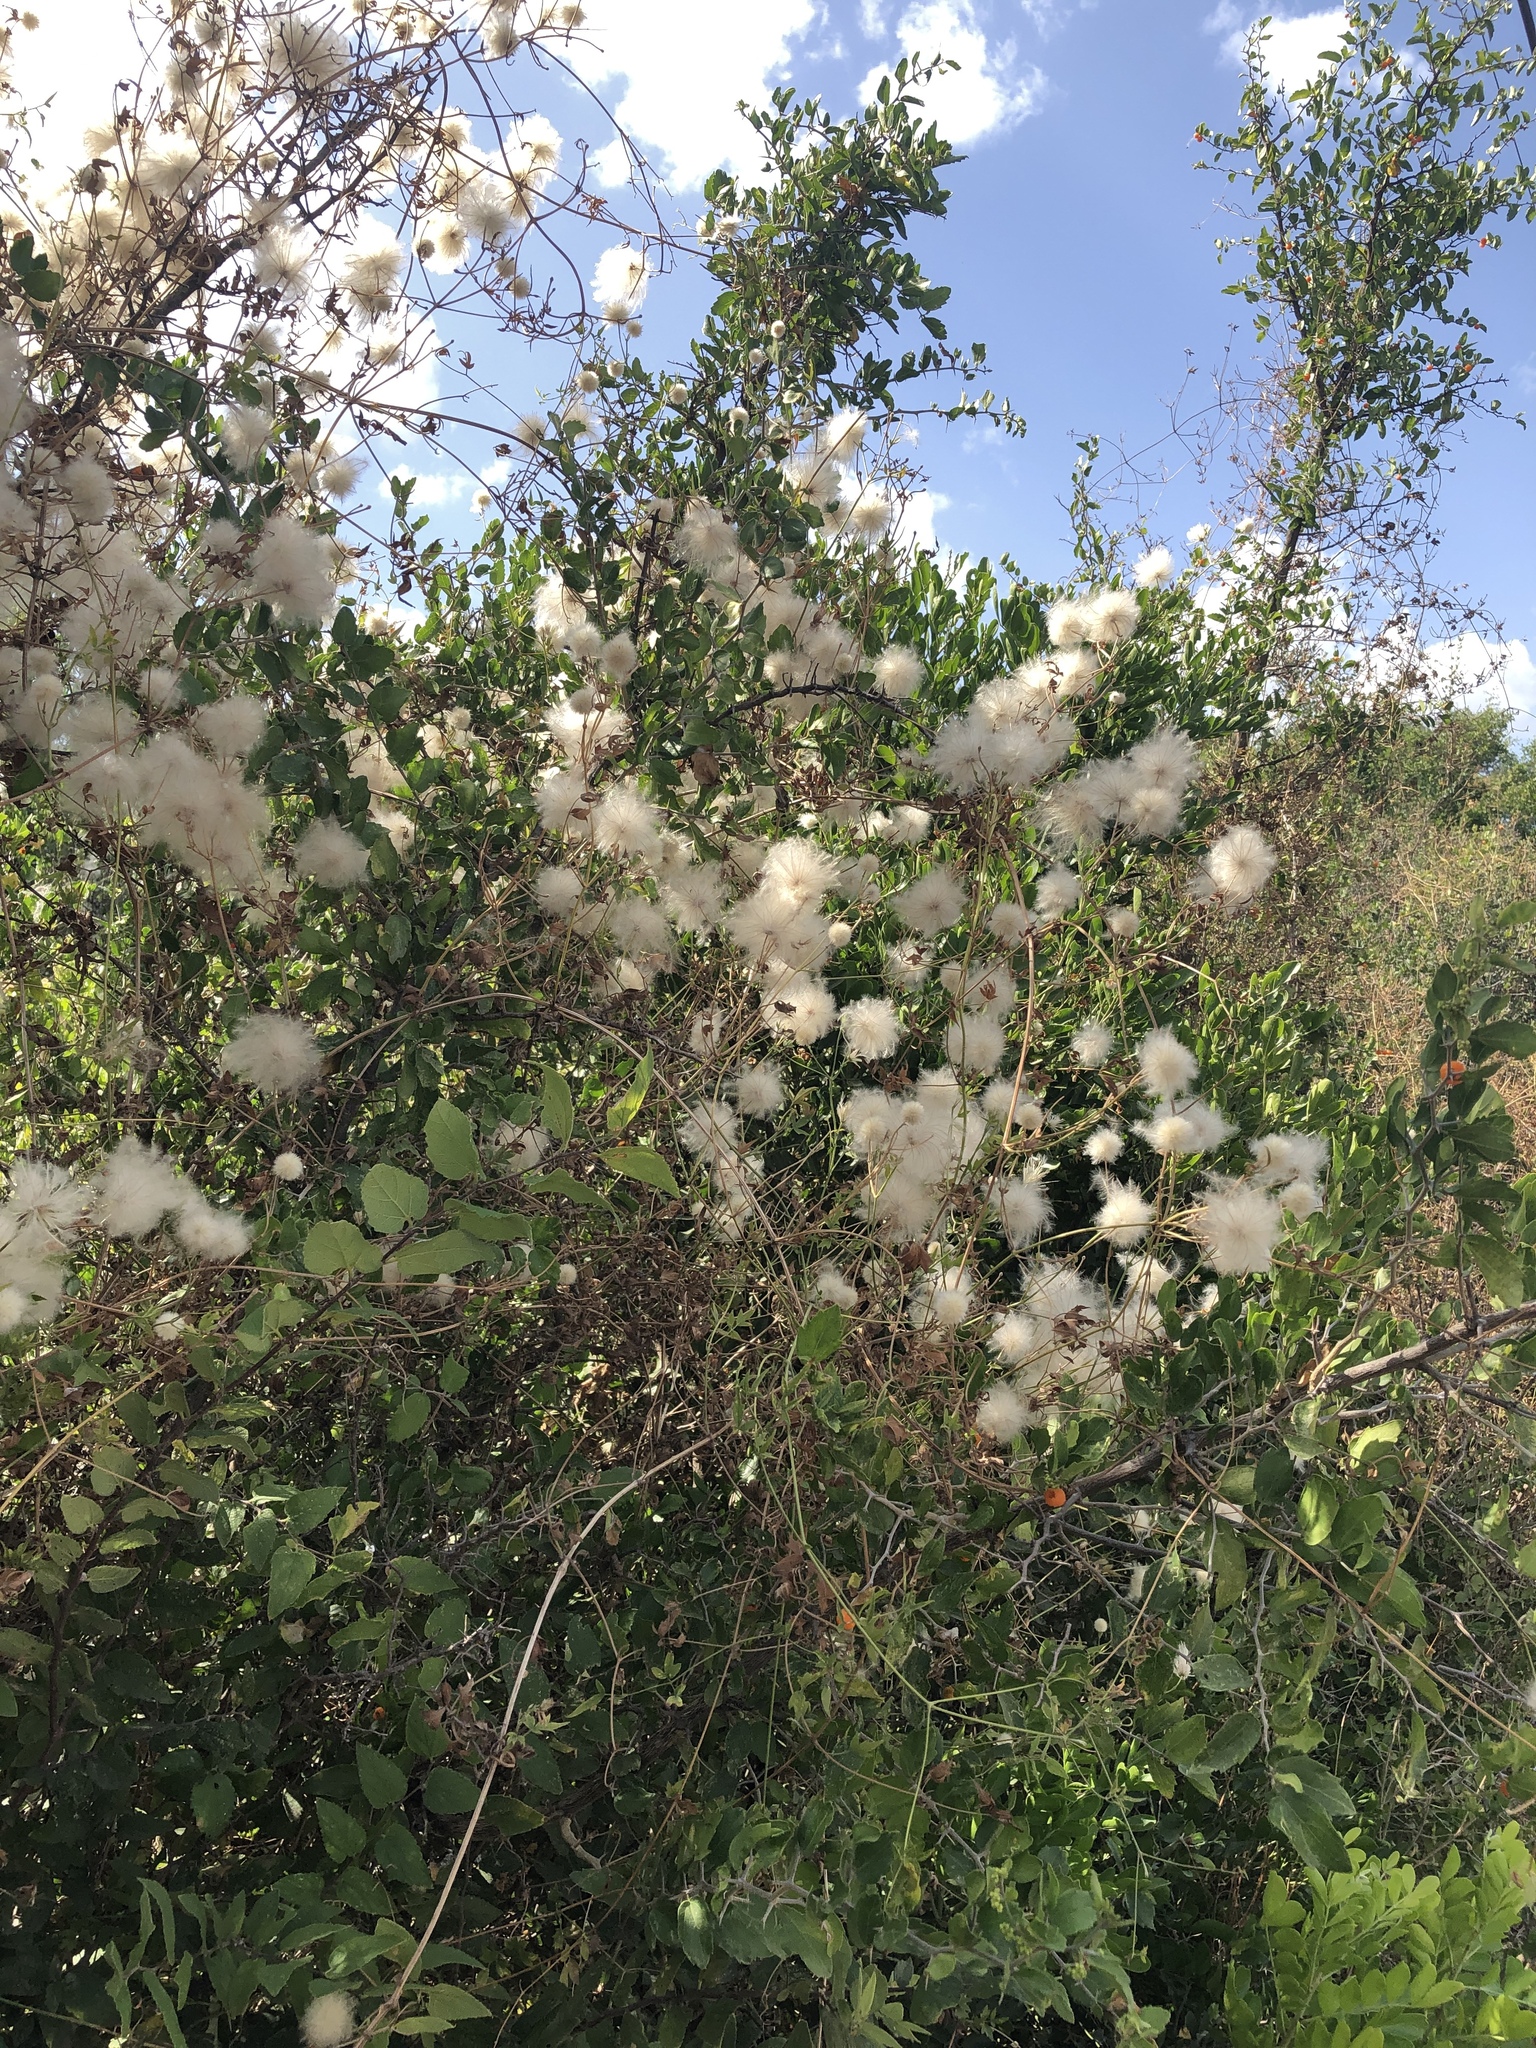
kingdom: Plantae
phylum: Tracheophyta
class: Magnoliopsida
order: Ranunculales
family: Ranunculaceae
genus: Clematis
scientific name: Clematis drummondii
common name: Texas virgin's bower
